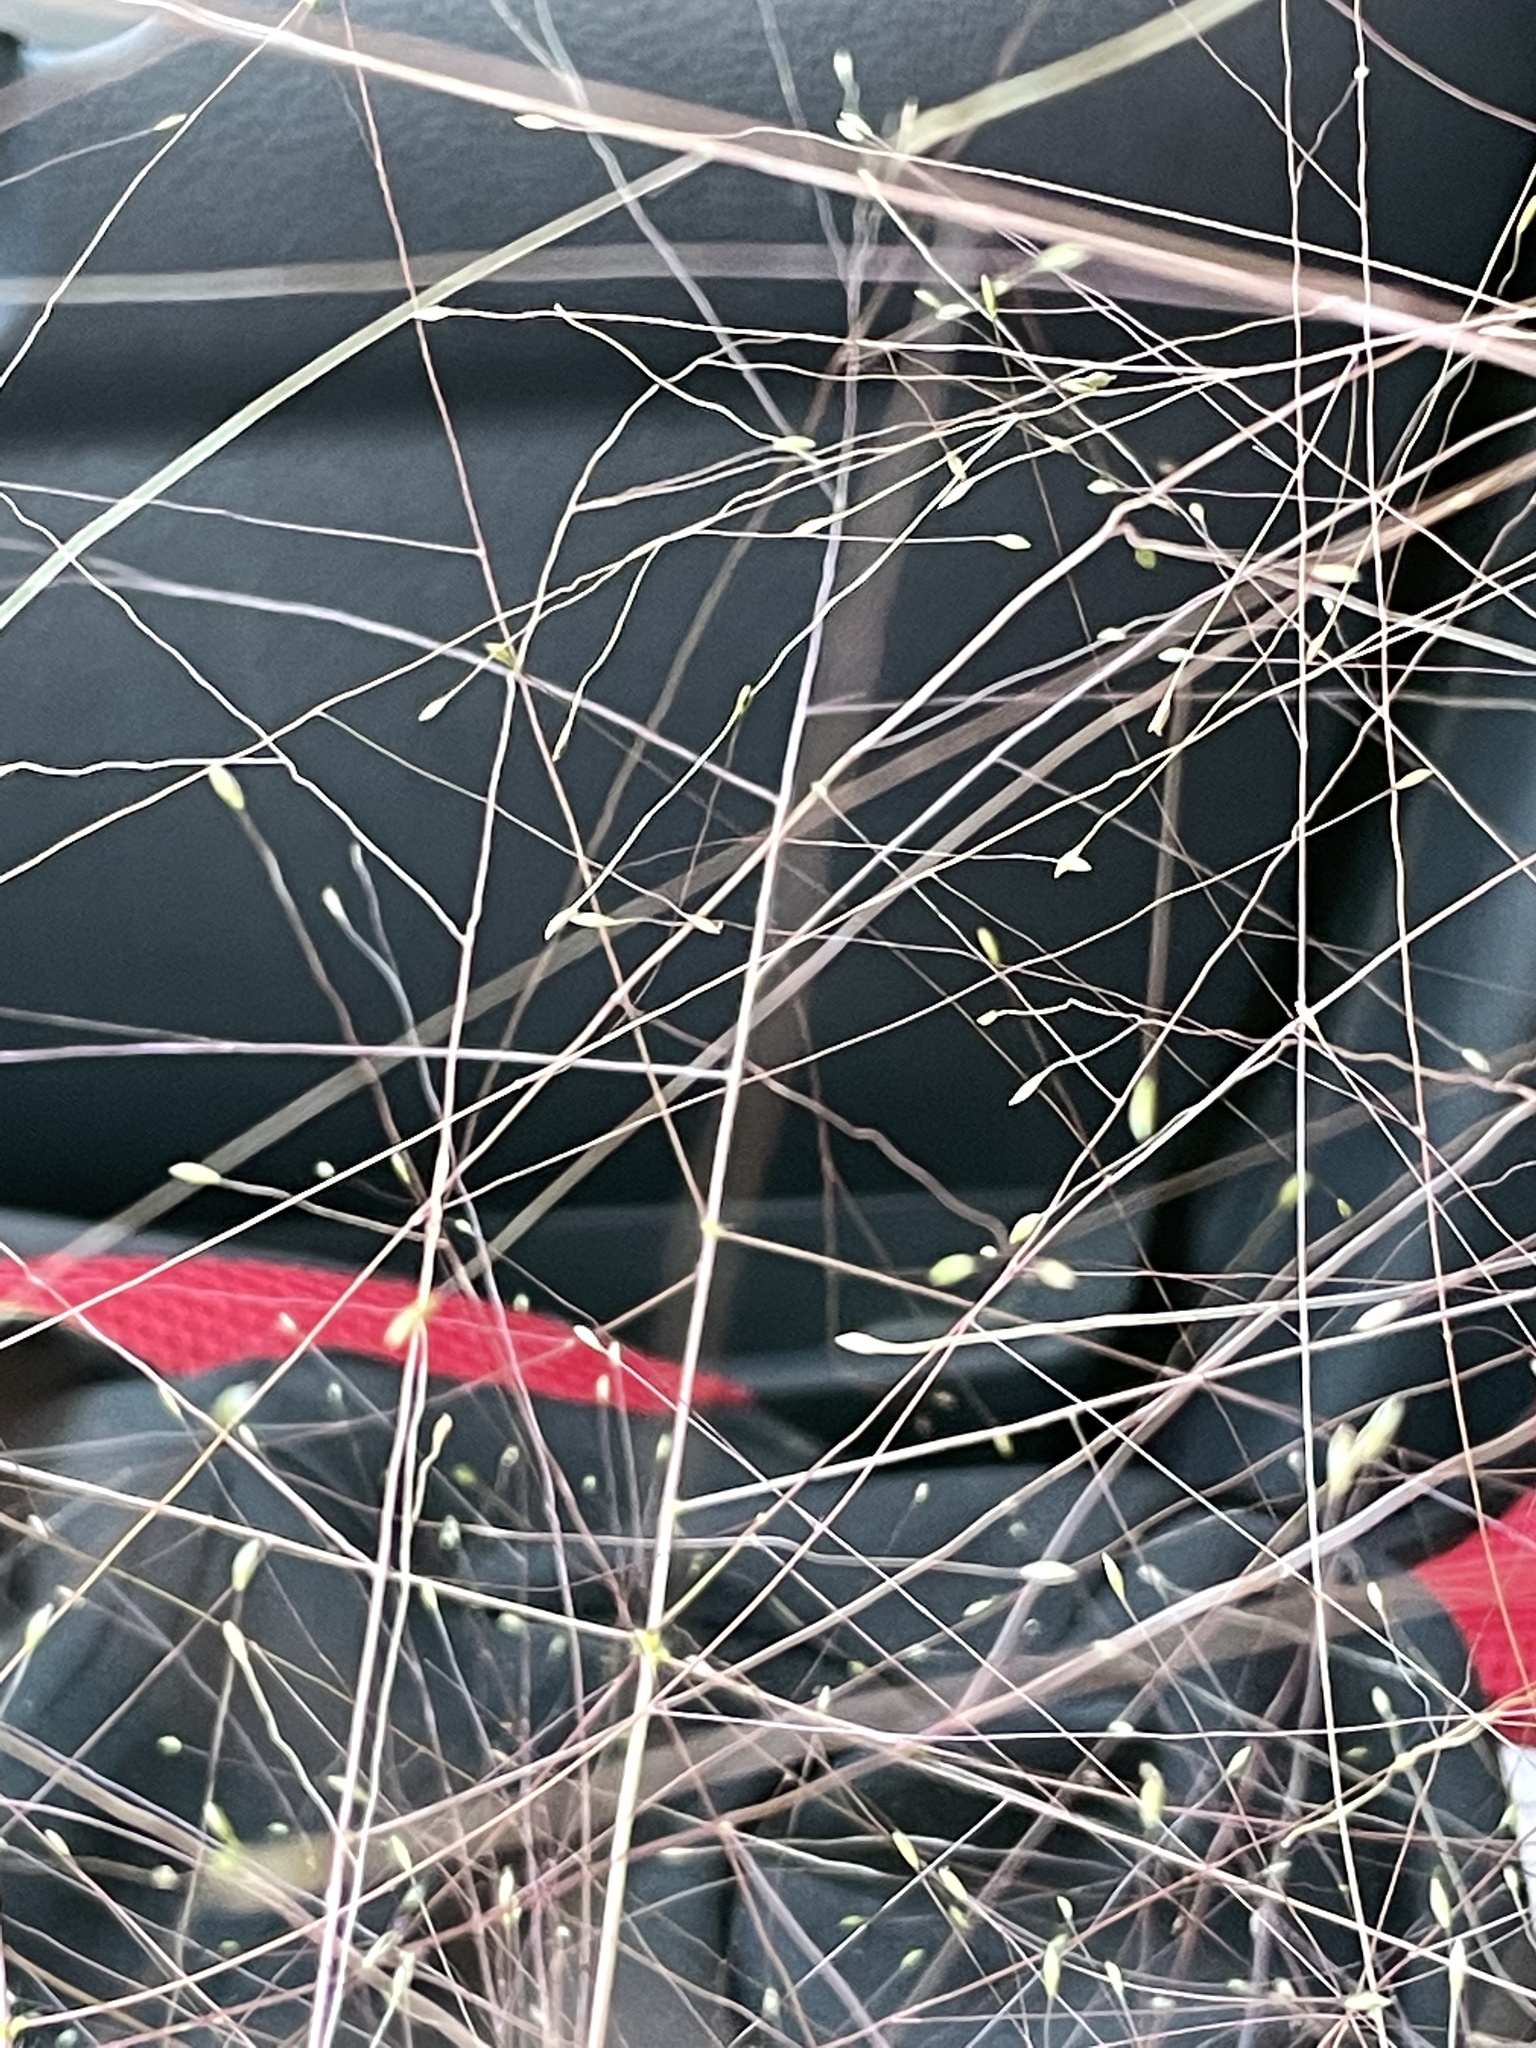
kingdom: Plantae
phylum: Tracheophyta
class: Liliopsida
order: Poales
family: Poaceae
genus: Digitaria
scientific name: Digitaria cognata
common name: Fall witchgrass
